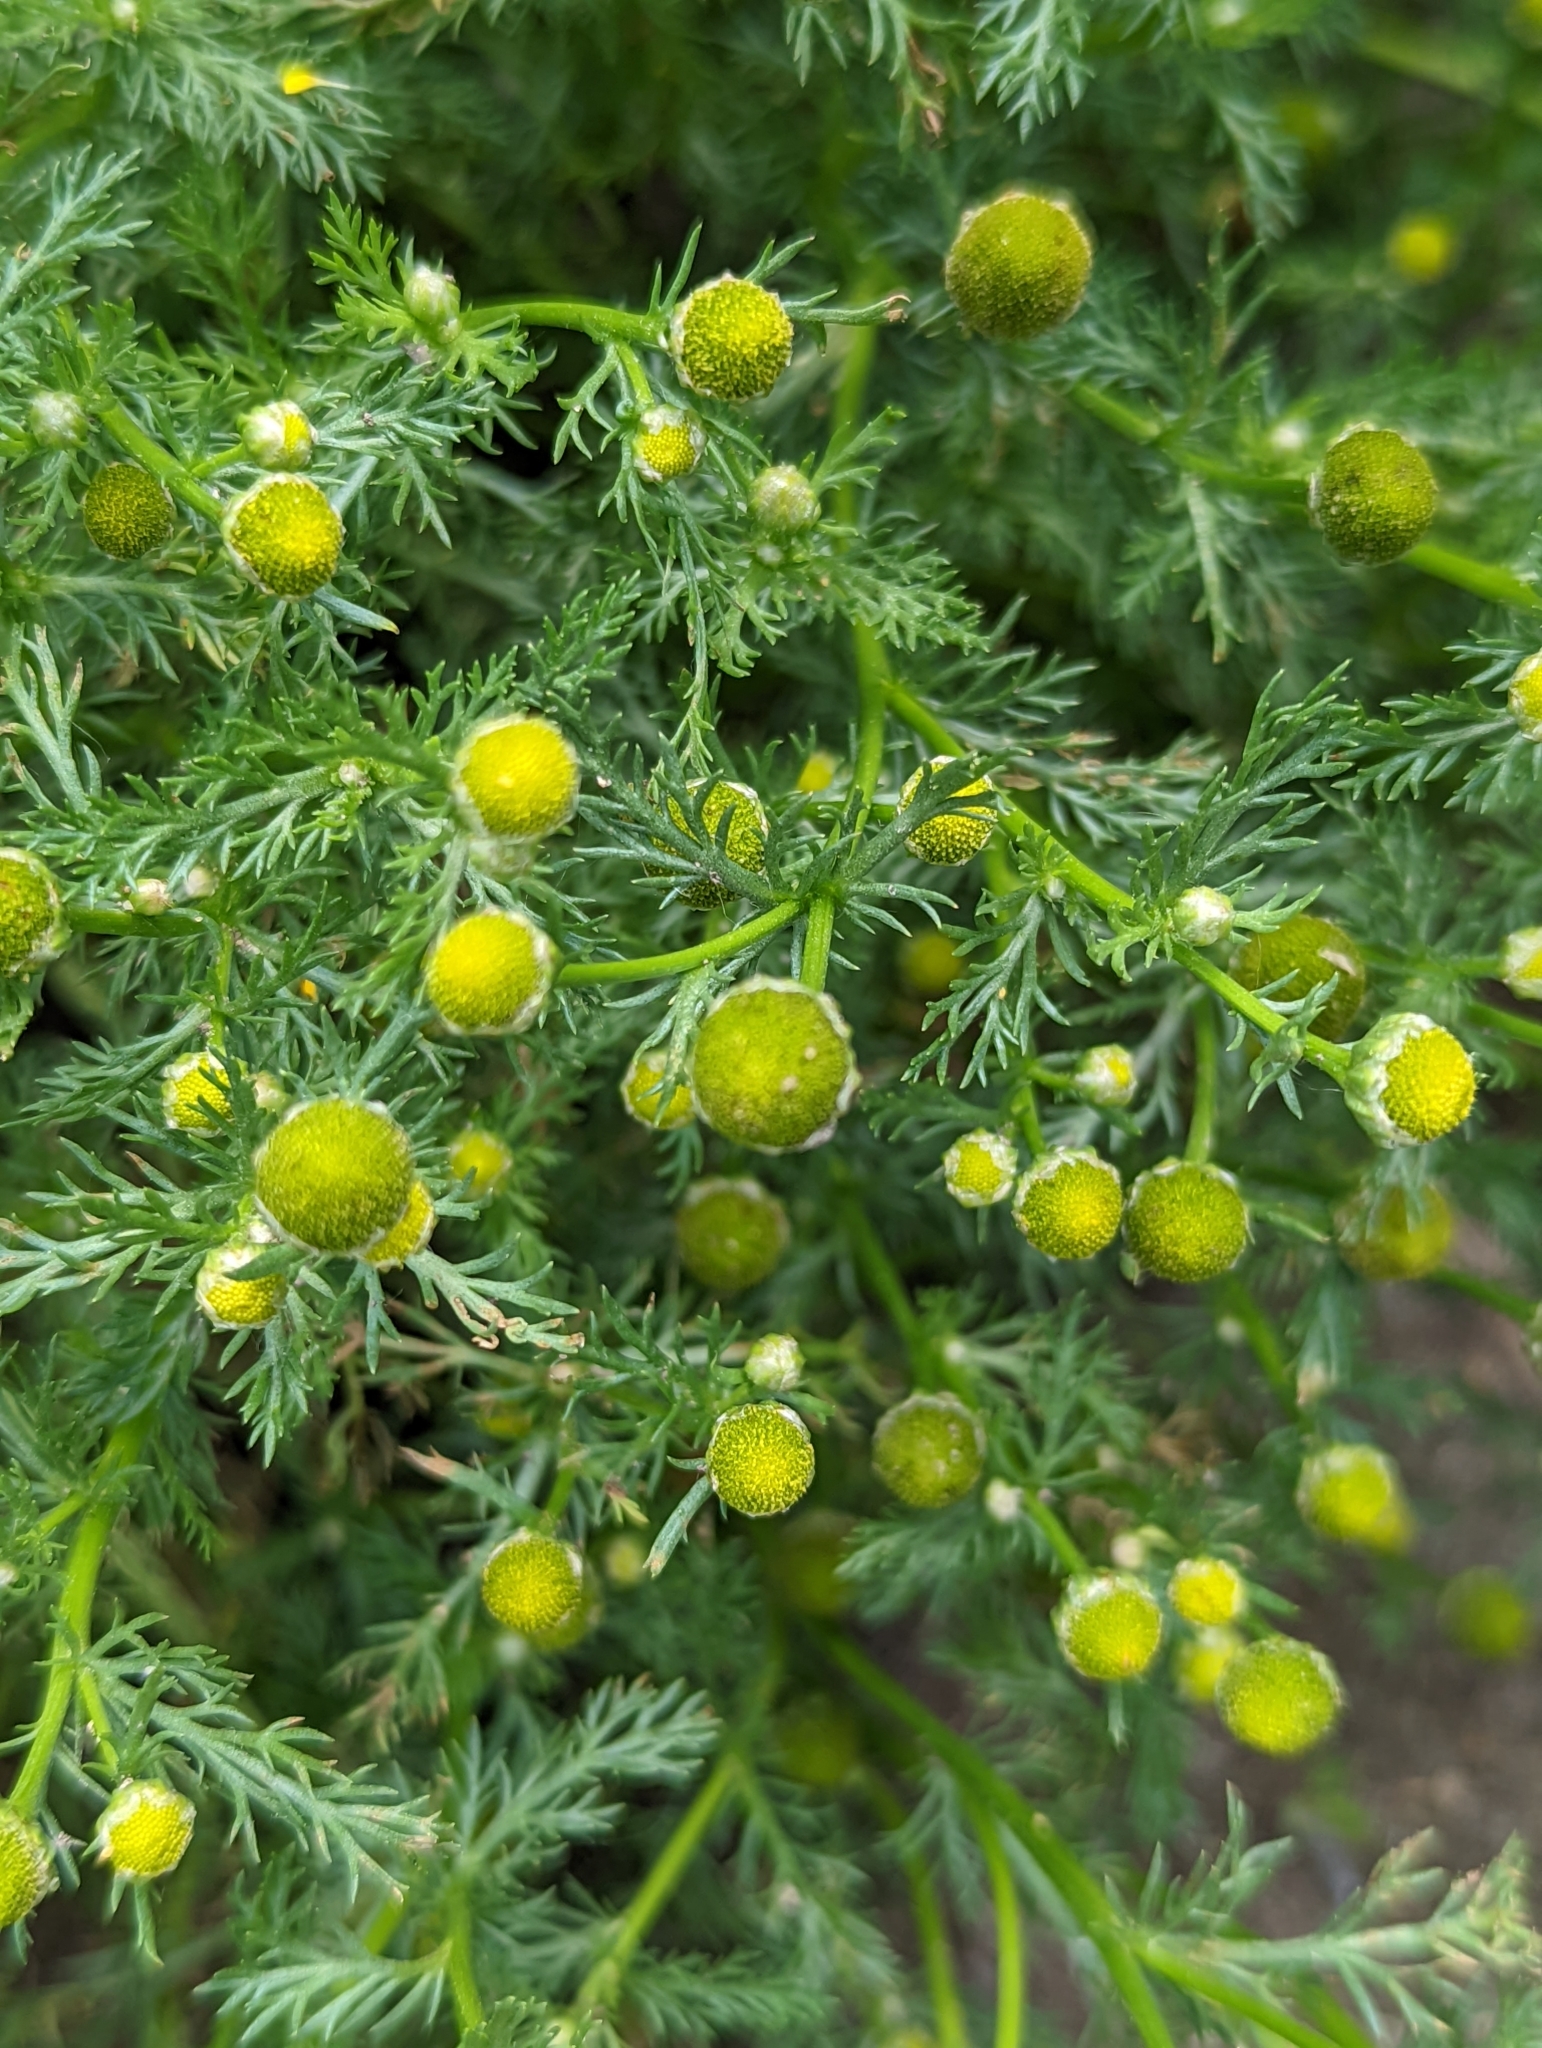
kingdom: Plantae
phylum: Tracheophyta
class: Magnoliopsida
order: Asterales
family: Asteraceae
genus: Matricaria
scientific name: Matricaria discoidea
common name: Disc mayweed
